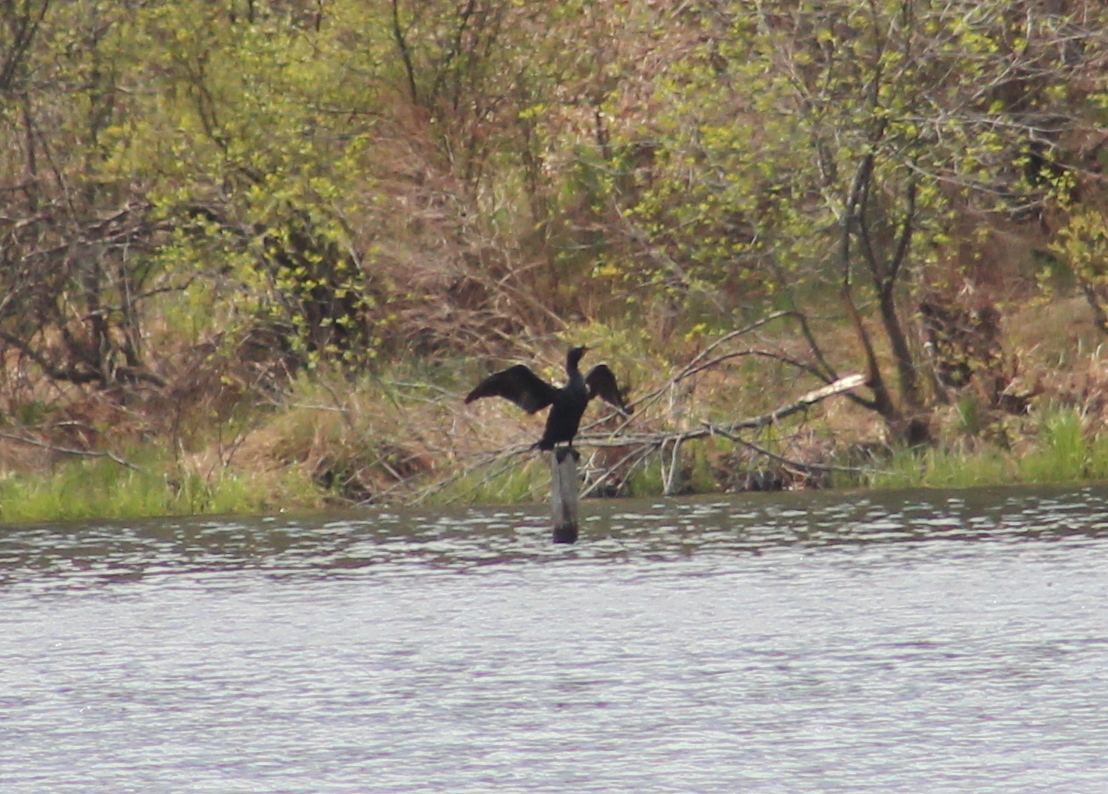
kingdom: Animalia
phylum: Chordata
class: Aves
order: Suliformes
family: Phalacrocoracidae
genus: Phalacrocorax
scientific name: Phalacrocorax auritus
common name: Double-crested cormorant
